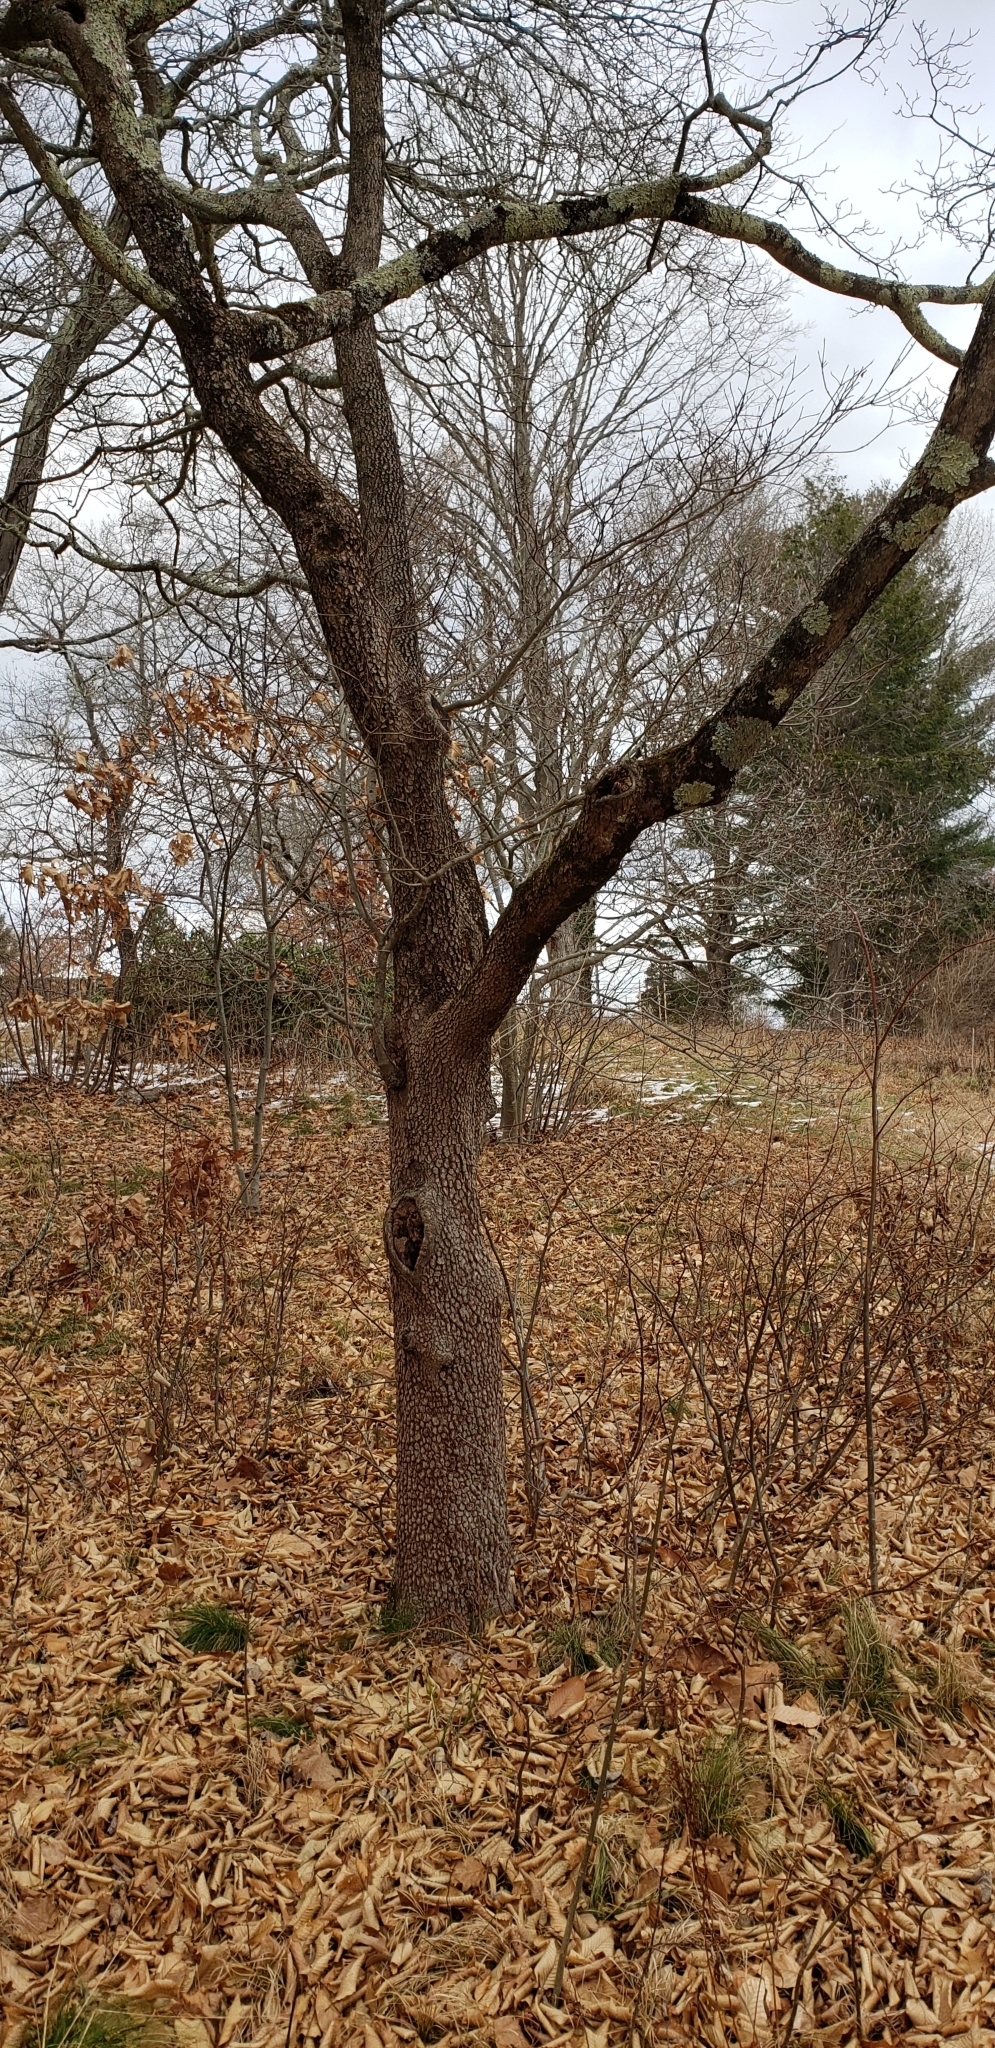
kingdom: Plantae
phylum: Tracheophyta
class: Magnoliopsida
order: Cornales
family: Cornaceae
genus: Cornus
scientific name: Cornus florida
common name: Flowering dogwood
